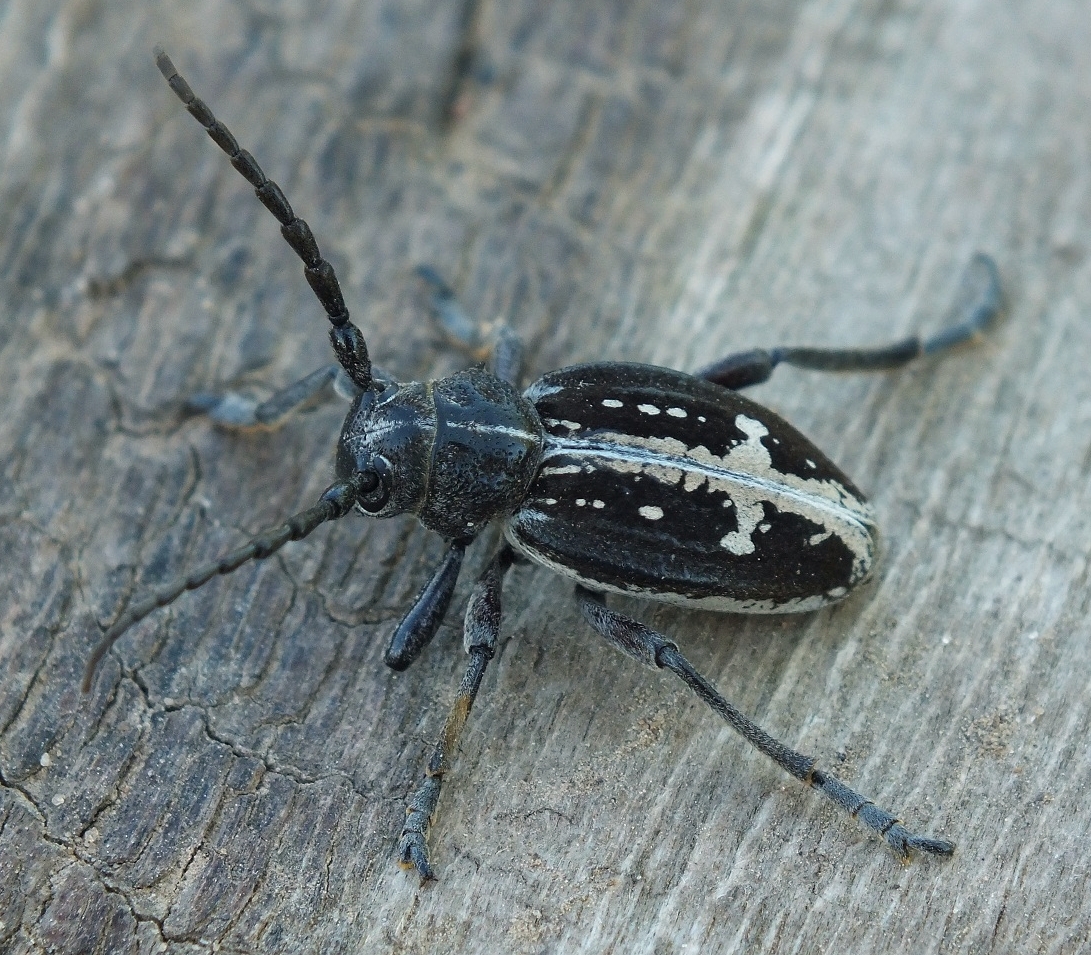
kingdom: Animalia
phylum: Arthropoda
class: Insecta
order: Coleoptera
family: Cerambycidae
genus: Dorcadion
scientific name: Dorcadion equestre
